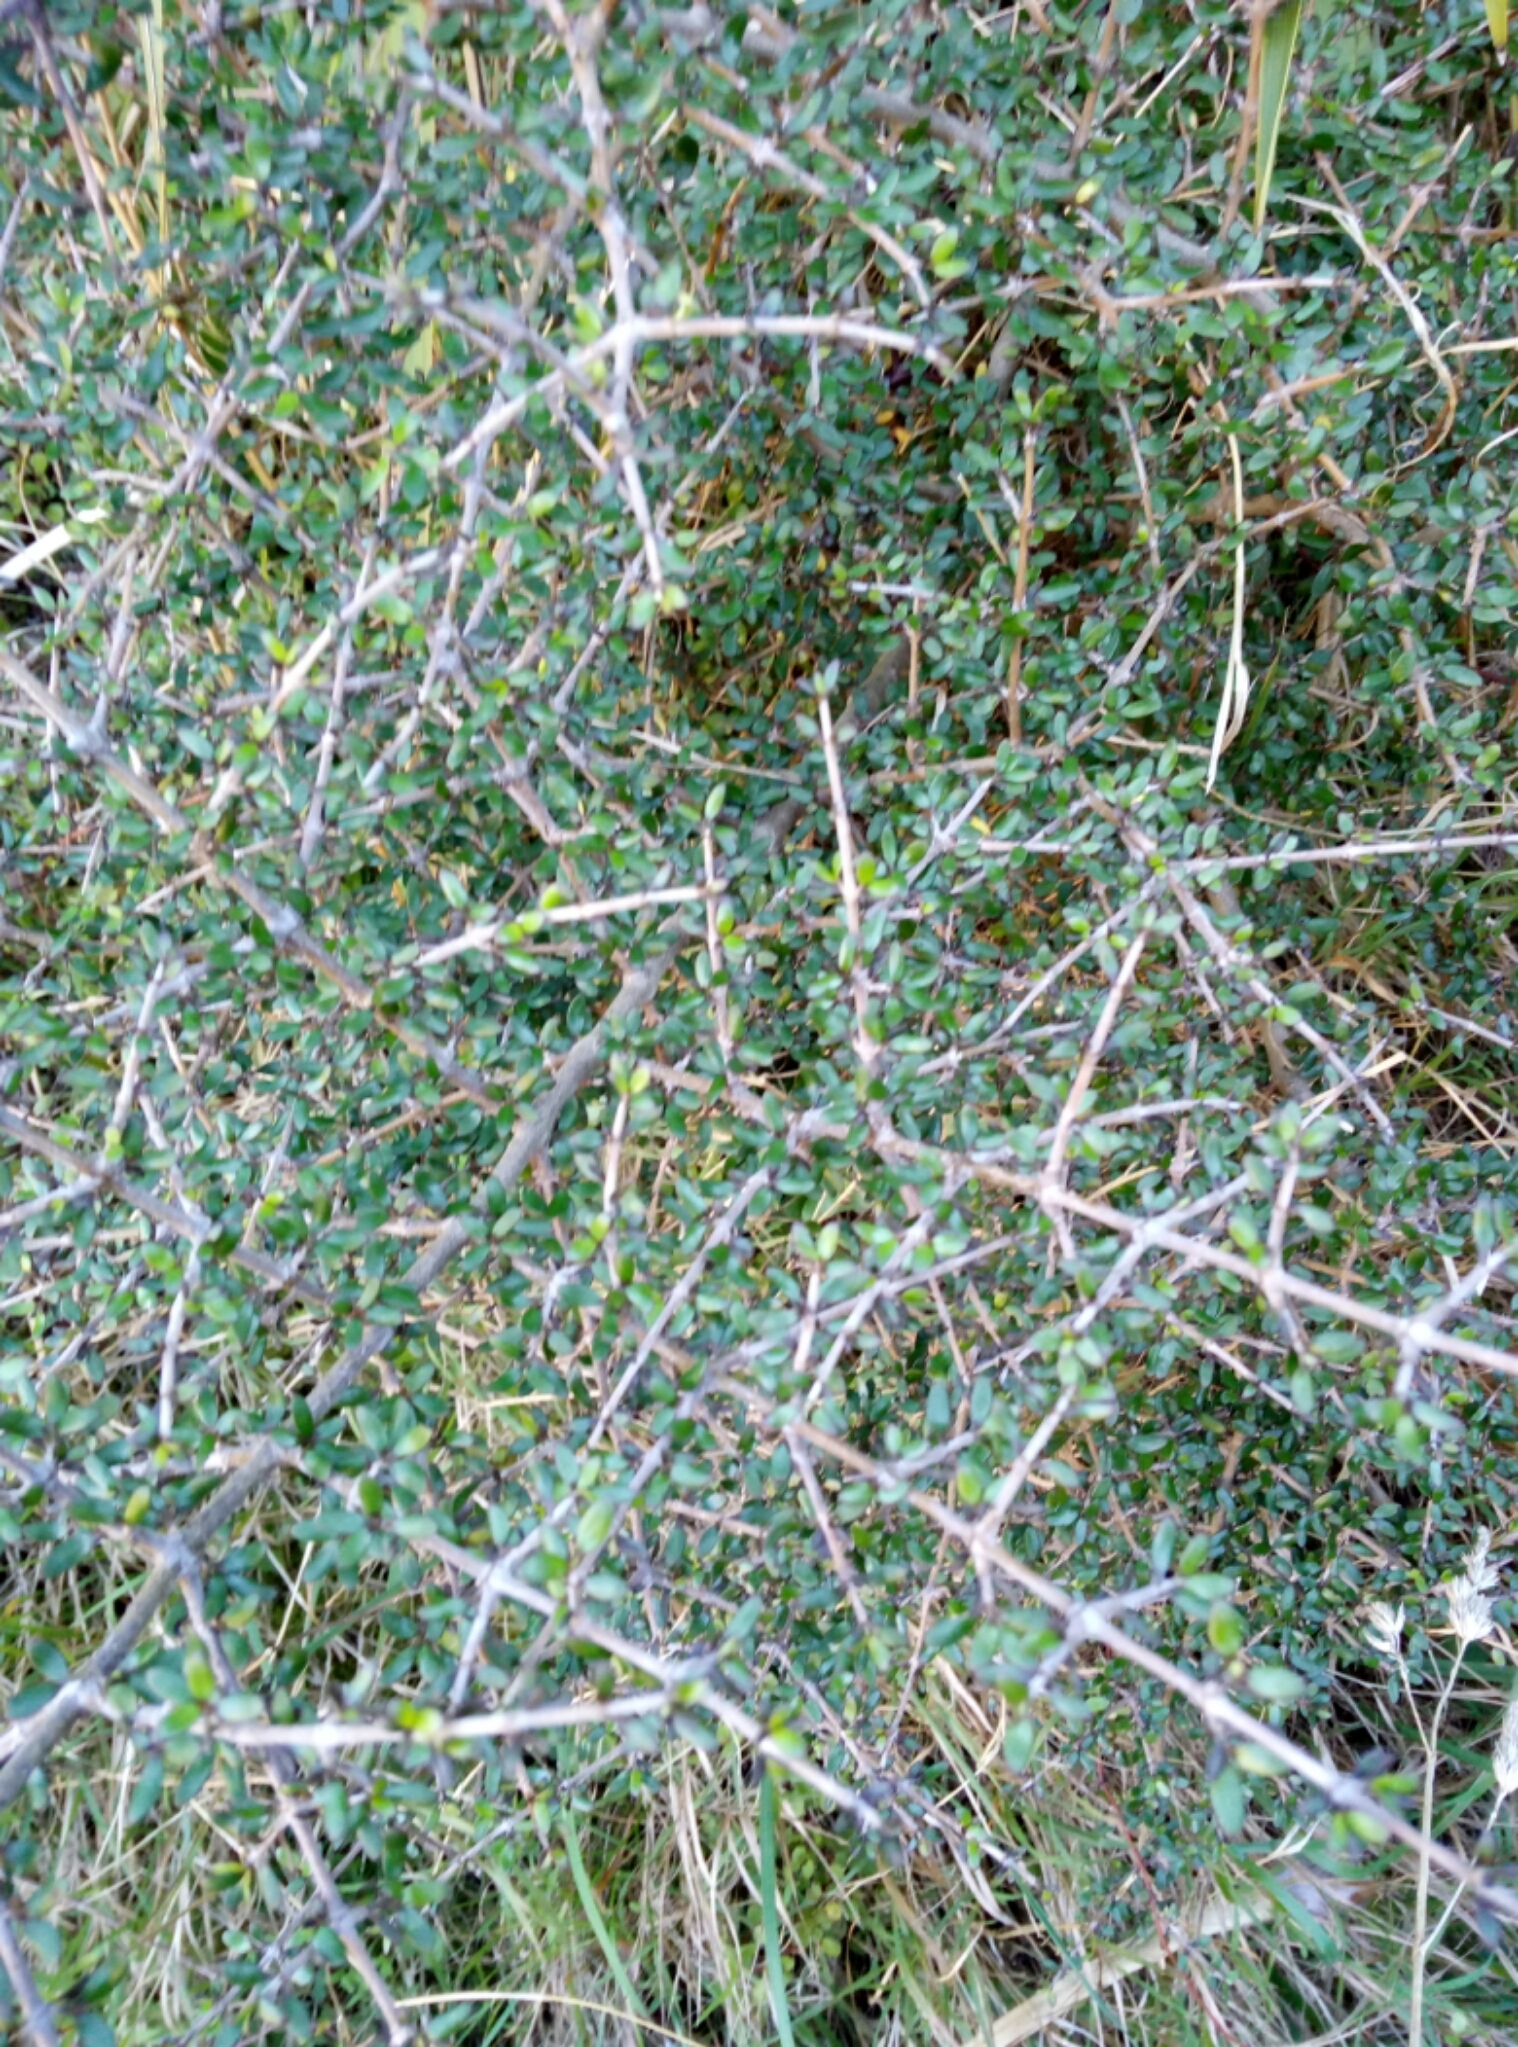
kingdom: Plantae
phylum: Tracheophyta
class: Magnoliopsida
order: Gentianales
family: Rubiaceae
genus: Coprosma
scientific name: Coprosma propinqua
